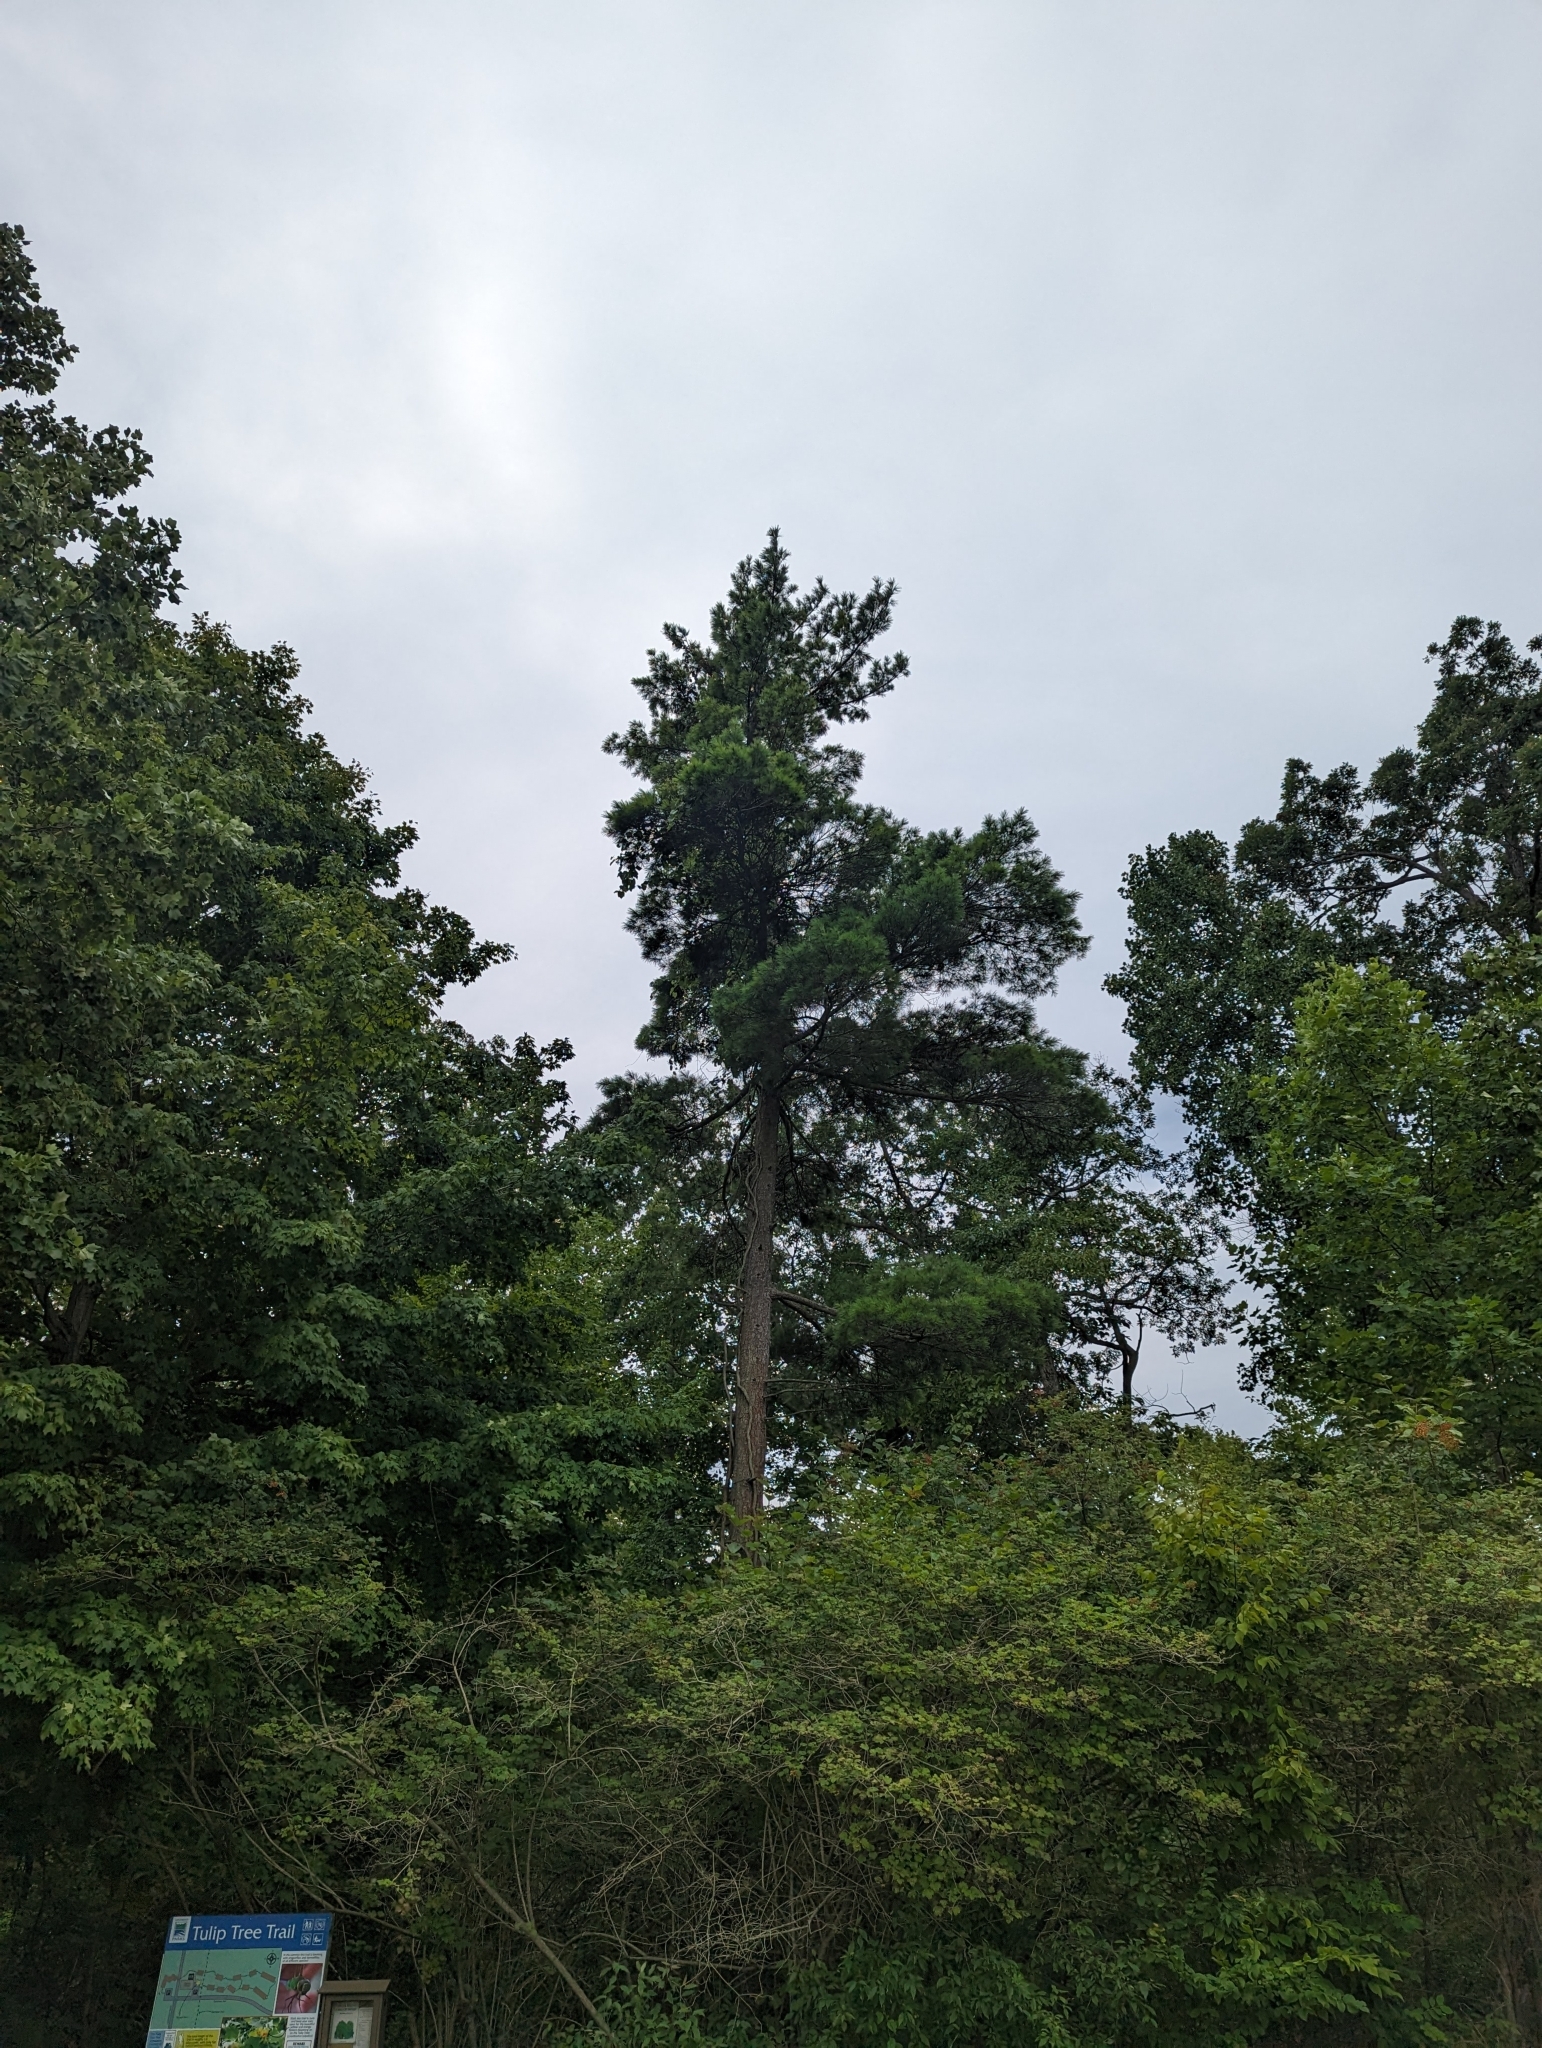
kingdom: Plantae
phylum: Tracheophyta
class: Pinopsida
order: Pinales
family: Pinaceae
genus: Pinus
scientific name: Pinus strobus
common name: Weymouth pine
